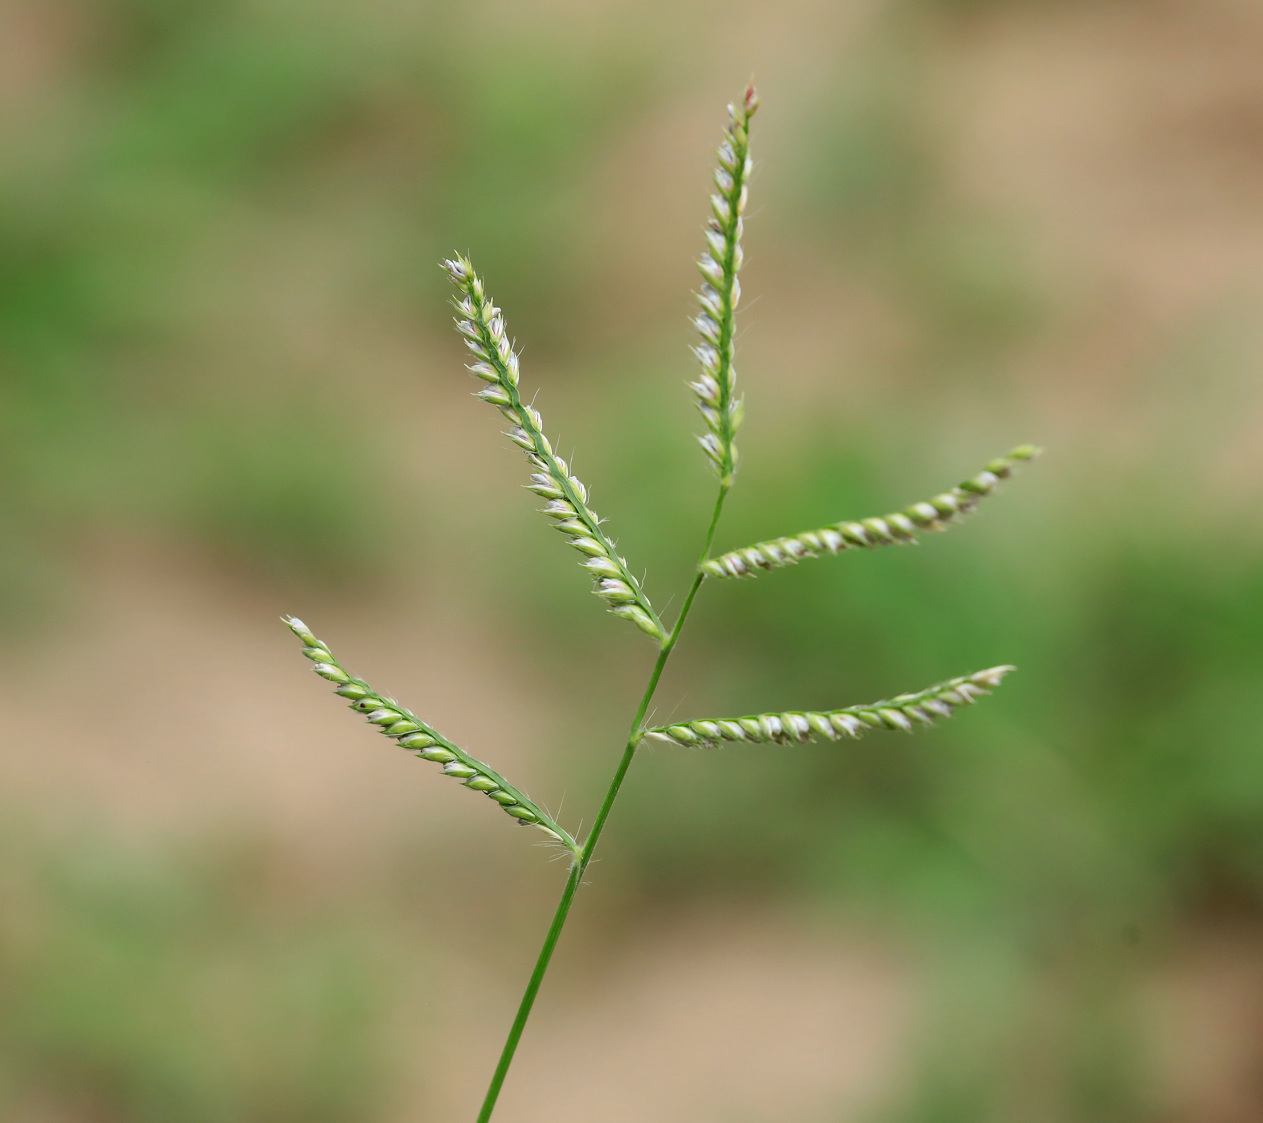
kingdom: Plantae
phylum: Tracheophyta
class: Liliopsida
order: Poales
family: Poaceae
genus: Urochloa
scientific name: Urochloa trichopus
